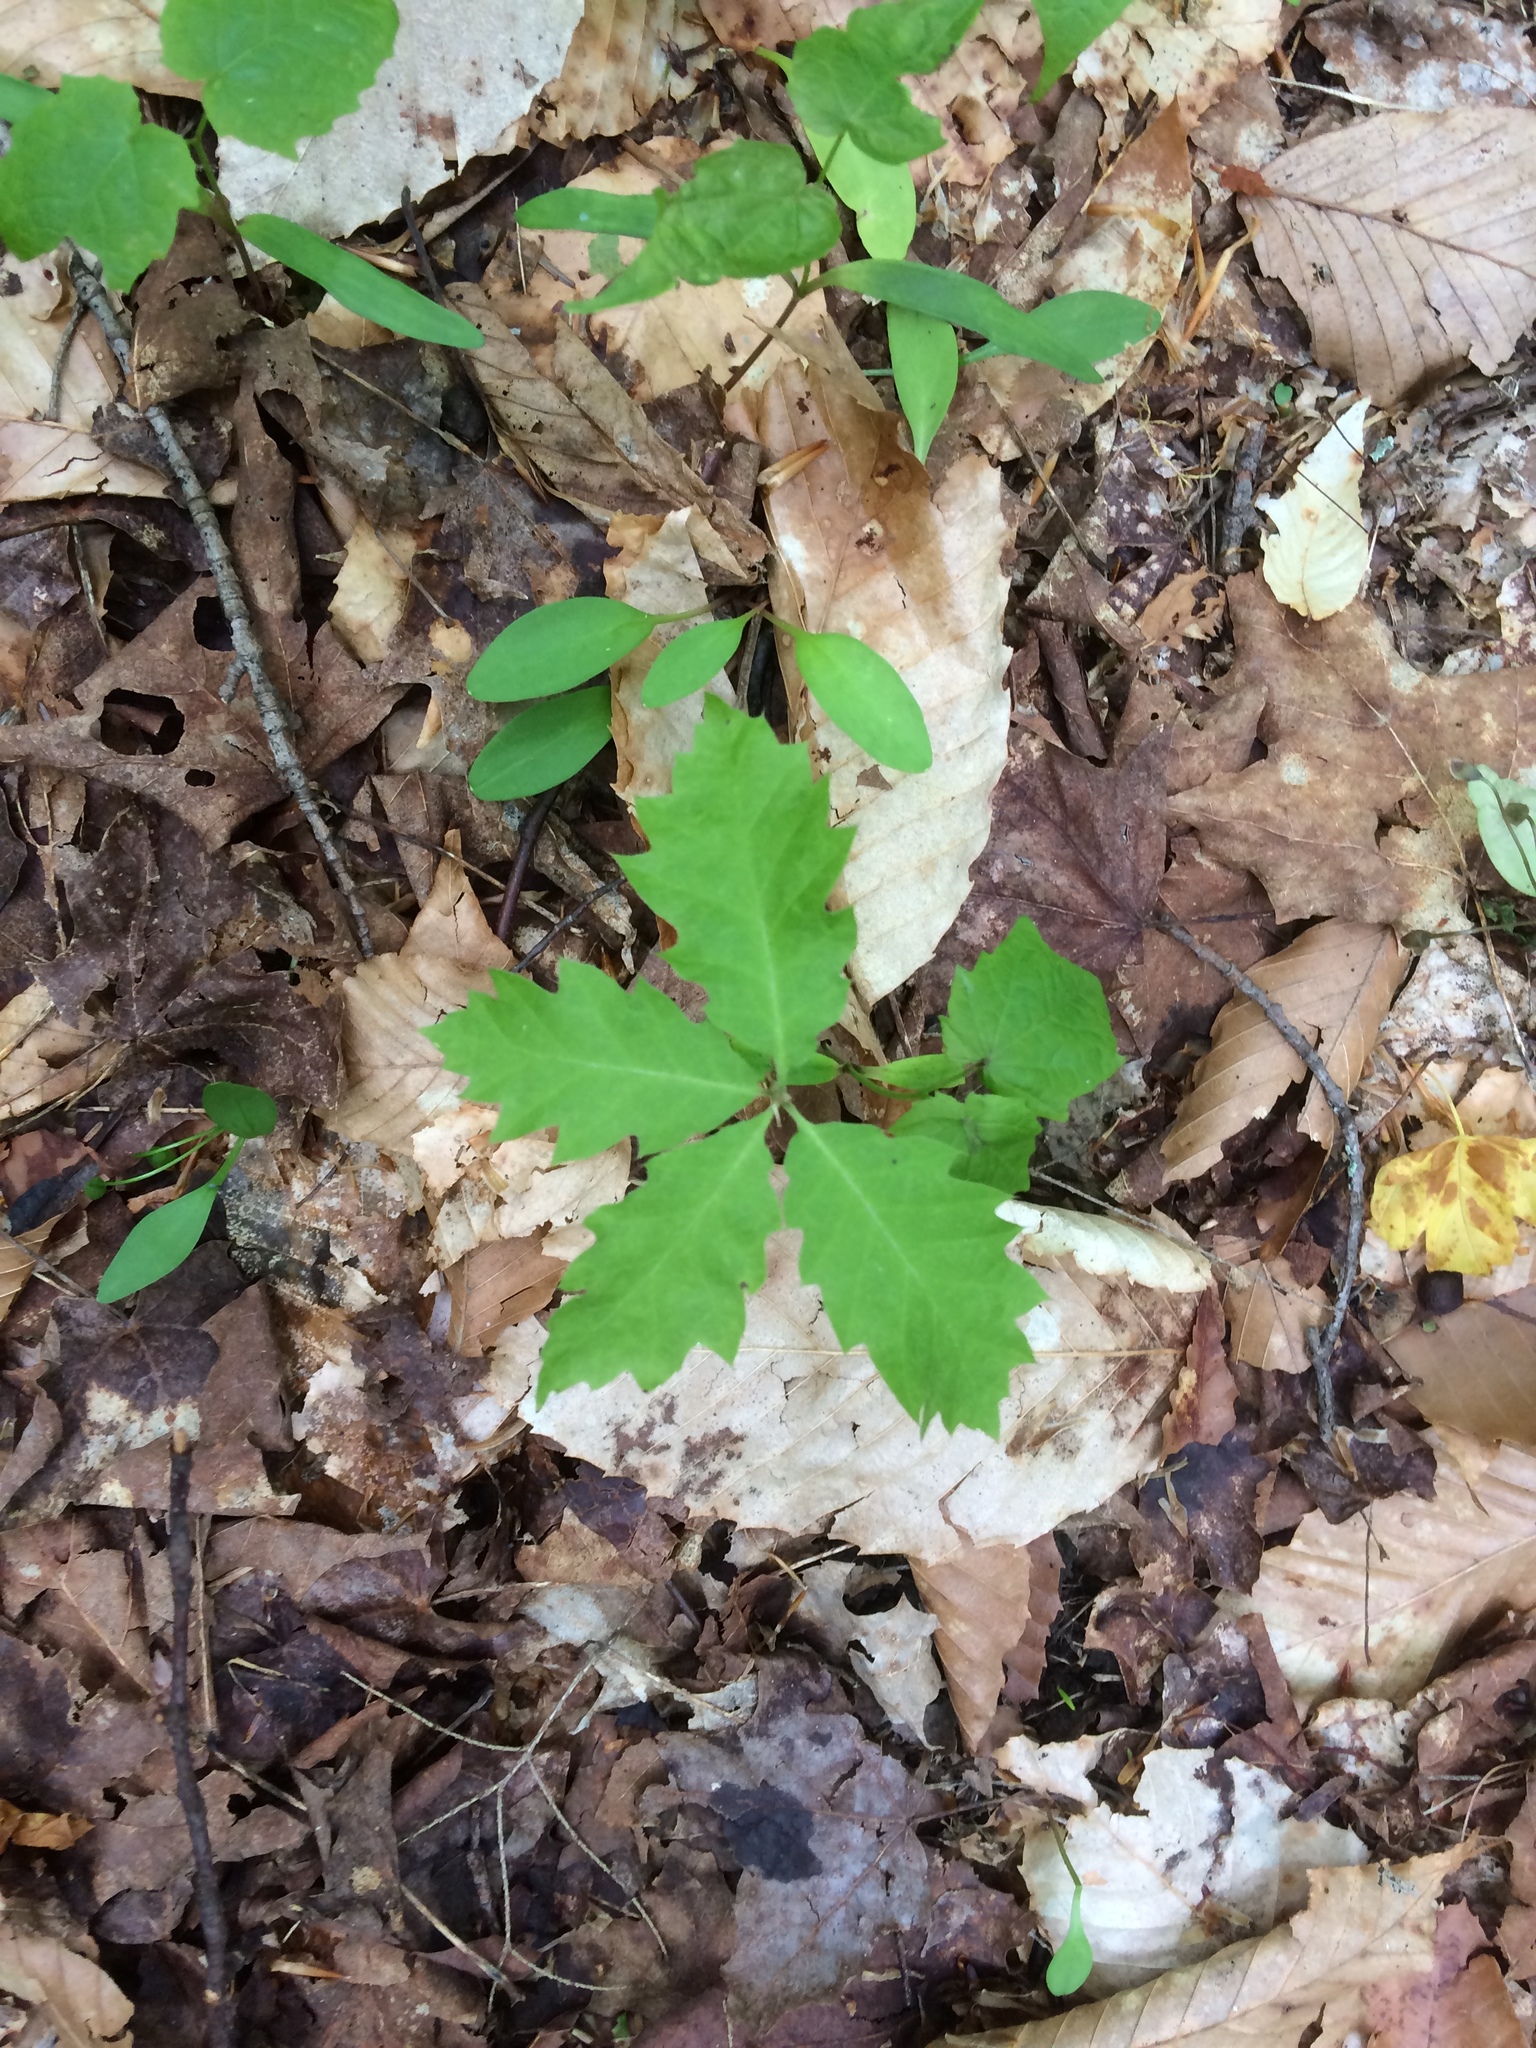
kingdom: Plantae
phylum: Tracheophyta
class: Magnoliopsida
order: Fagales
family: Fagaceae
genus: Quercus
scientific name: Quercus rubra
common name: Red oak
